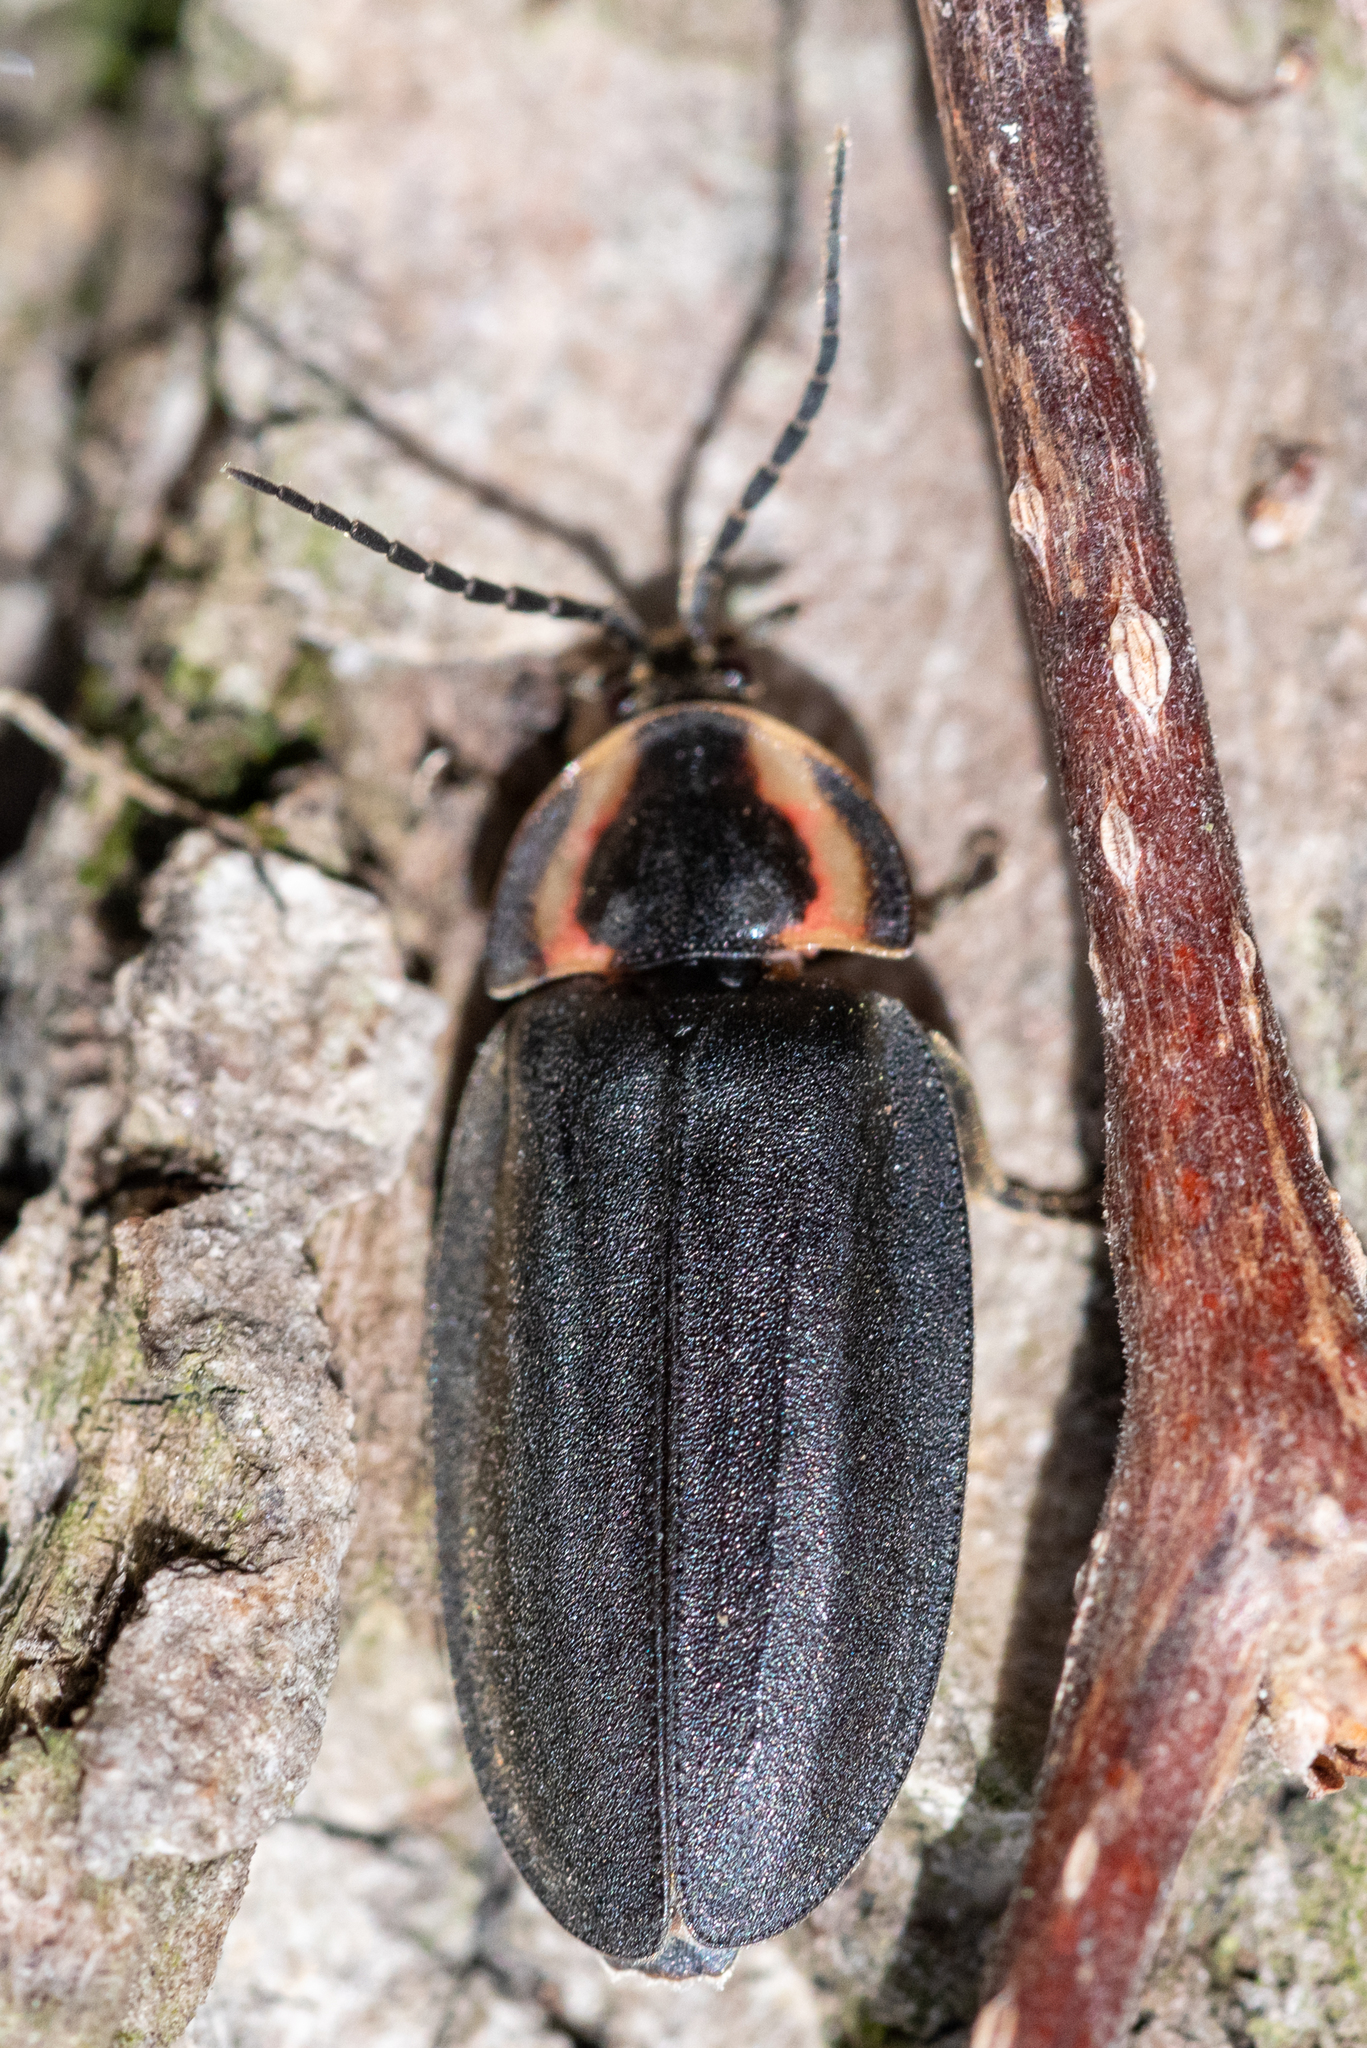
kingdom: Animalia
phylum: Arthropoda
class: Insecta
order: Coleoptera
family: Lampyridae
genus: Photinus
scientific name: Photinus corrusca
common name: Winter firefly
